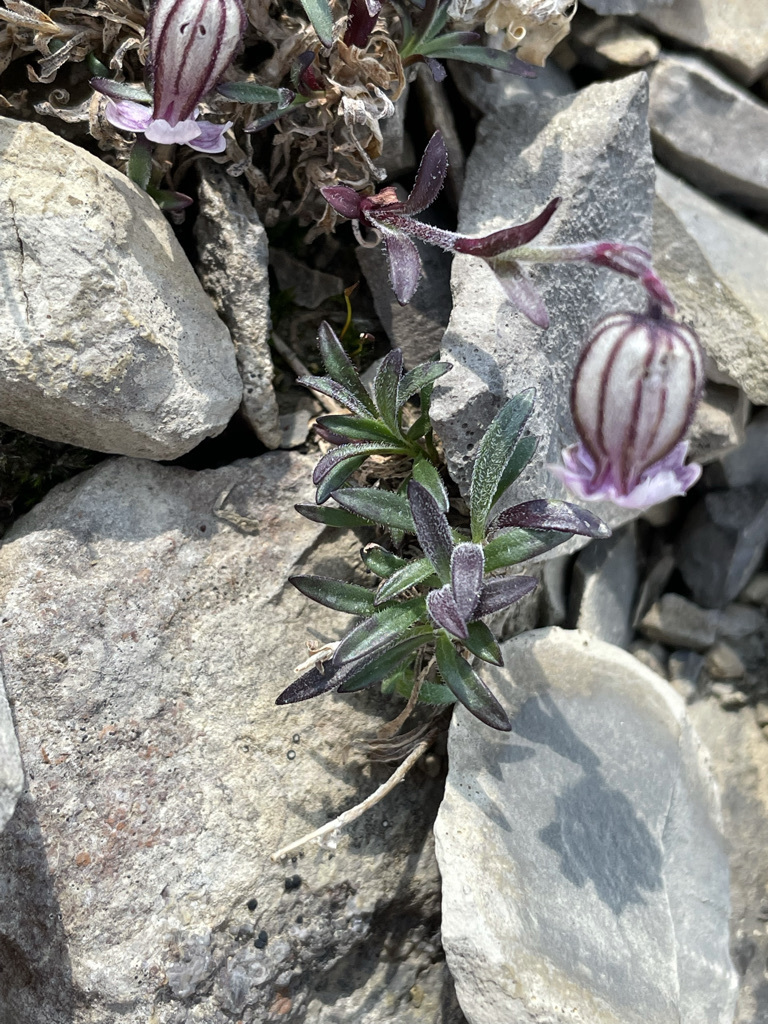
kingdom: Plantae
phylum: Tracheophyta
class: Magnoliopsida
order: Caryophyllales
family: Caryophyllaceae
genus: Silene
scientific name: Silene uralensis
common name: Nodding campion
